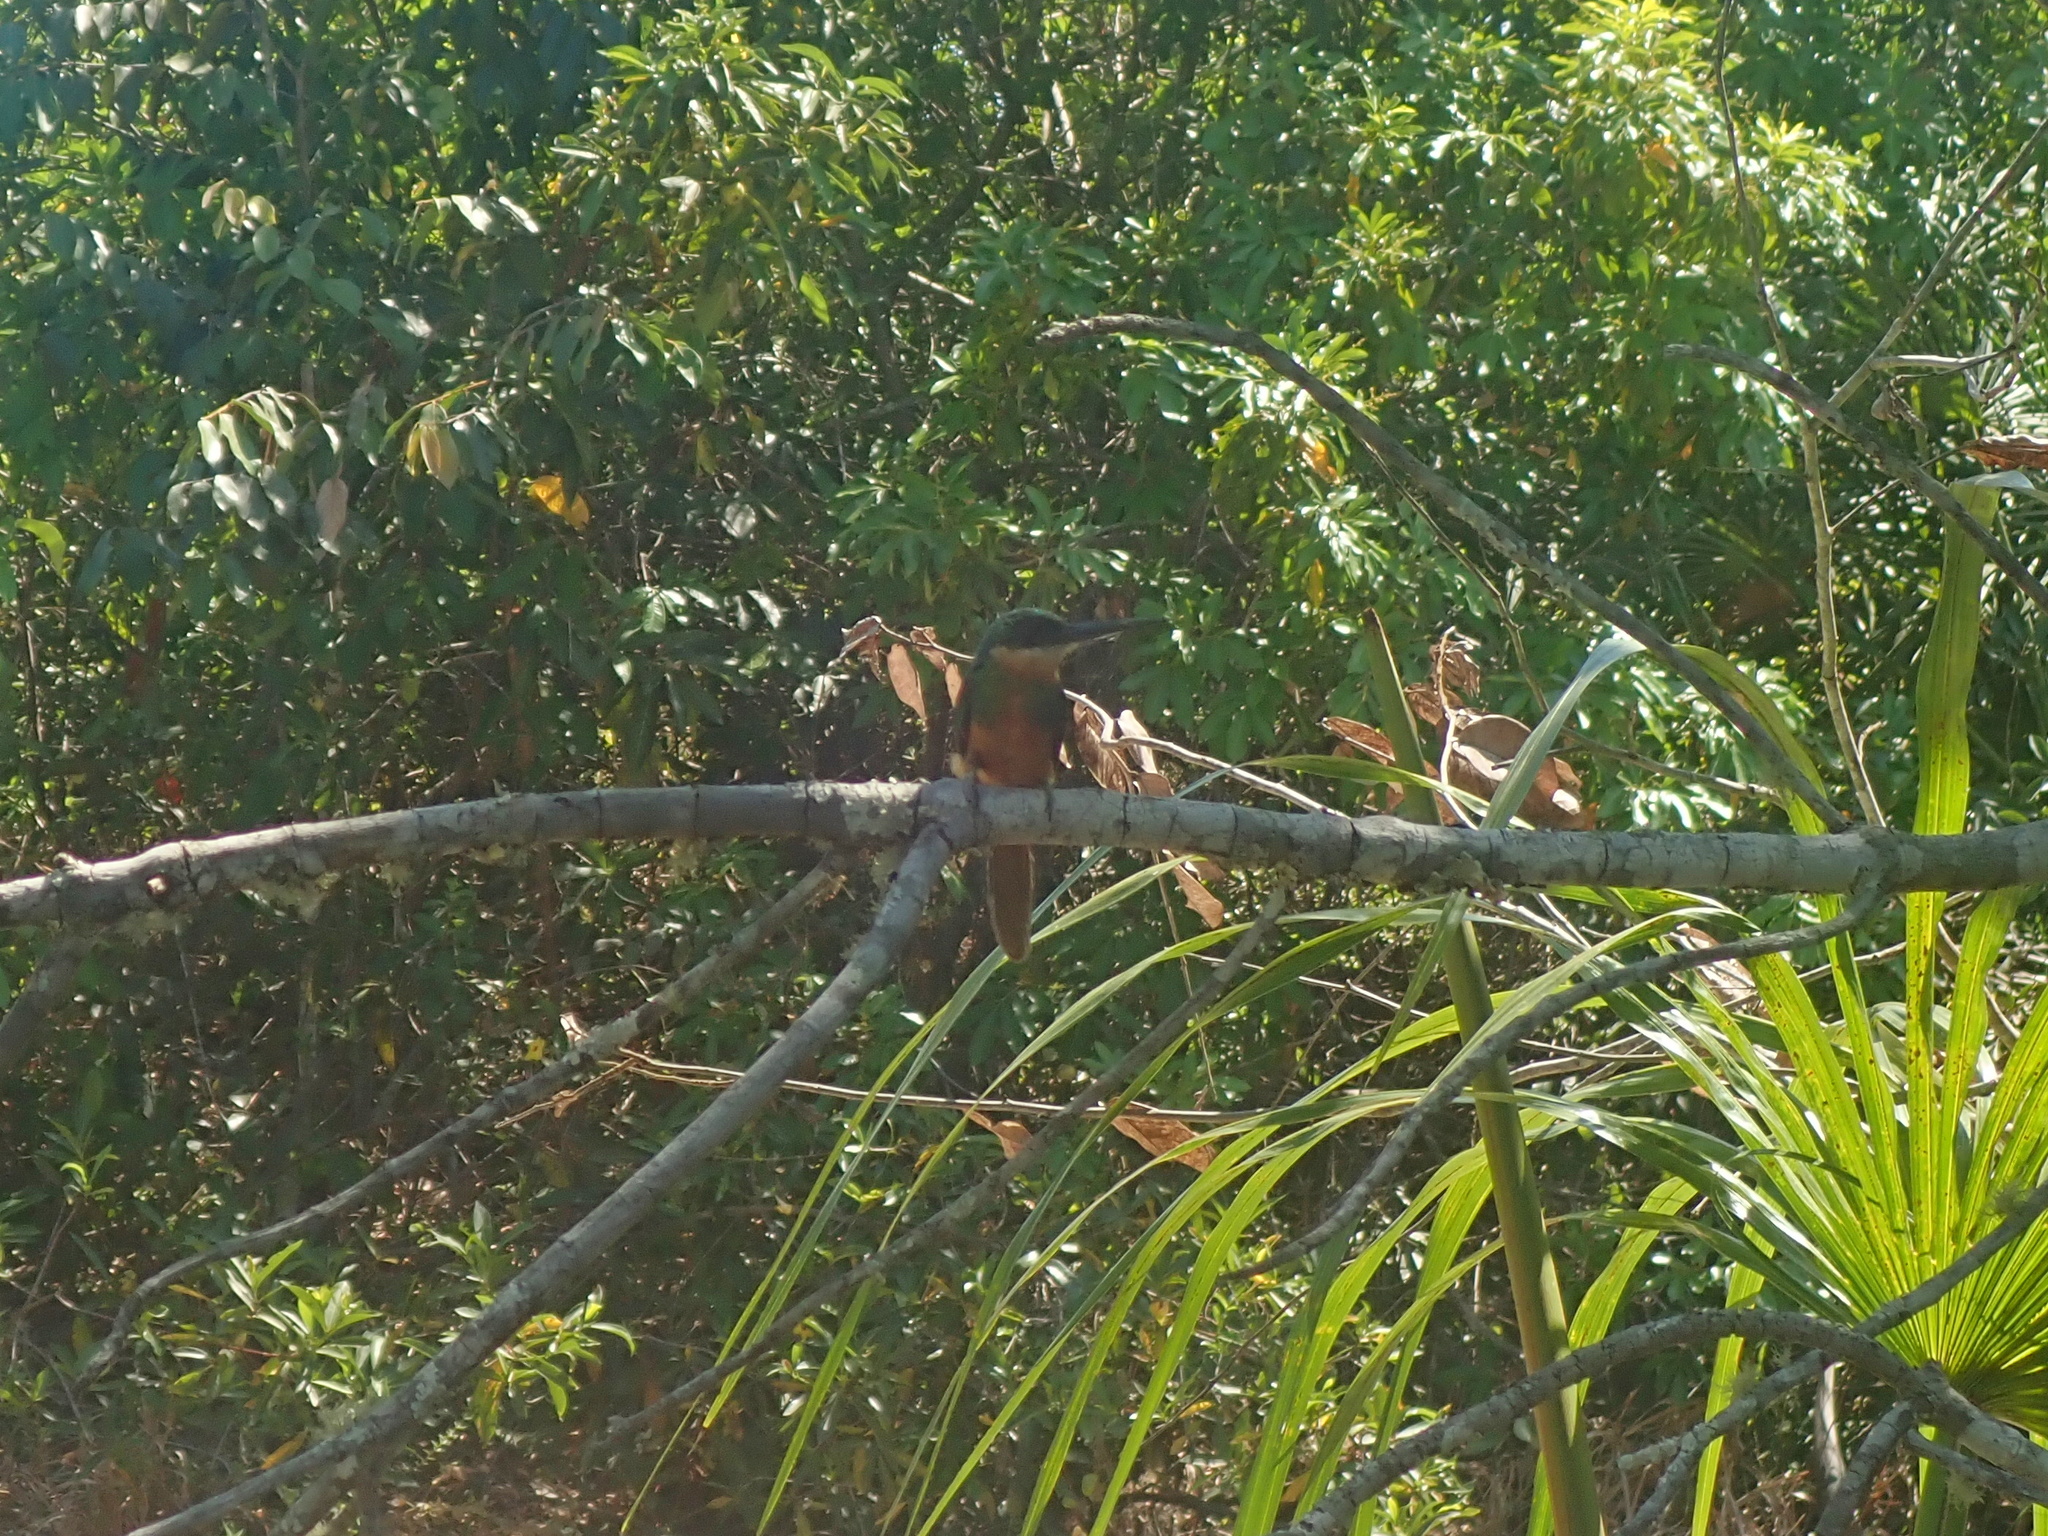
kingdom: Animalia
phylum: Chordata
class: Aves
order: Piciformes
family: Galbulidae
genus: Galbula
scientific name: Galbula ruficauda
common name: Rufous-tailed jacamar
